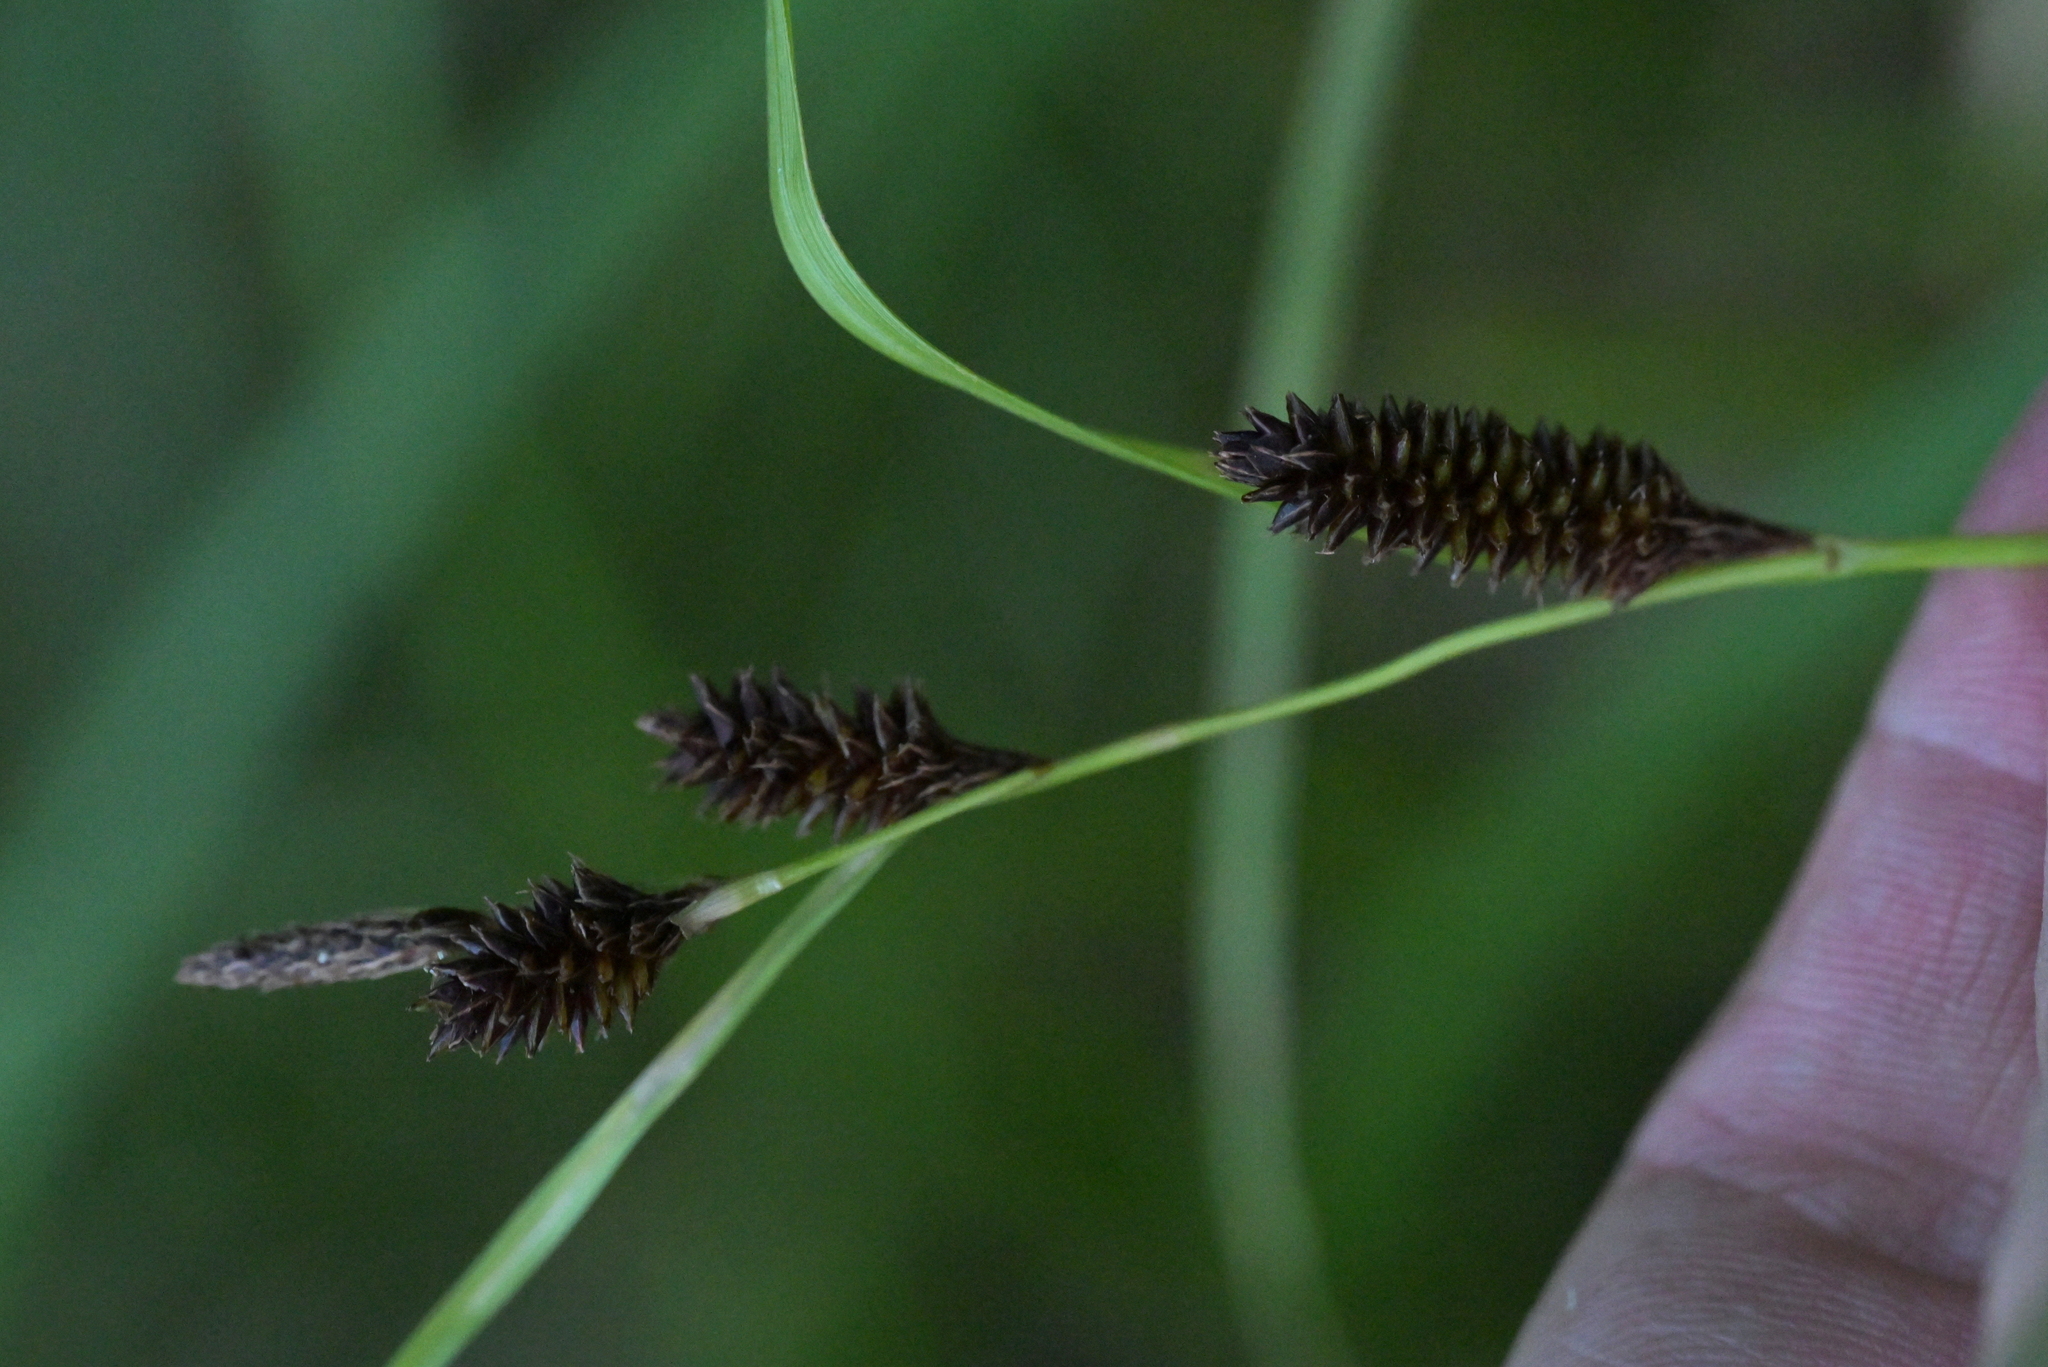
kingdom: Plantae
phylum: Tracheophyta
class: Liliopsida
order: Poales
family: Cyperaceae
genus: Carex
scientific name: Carex dissita
